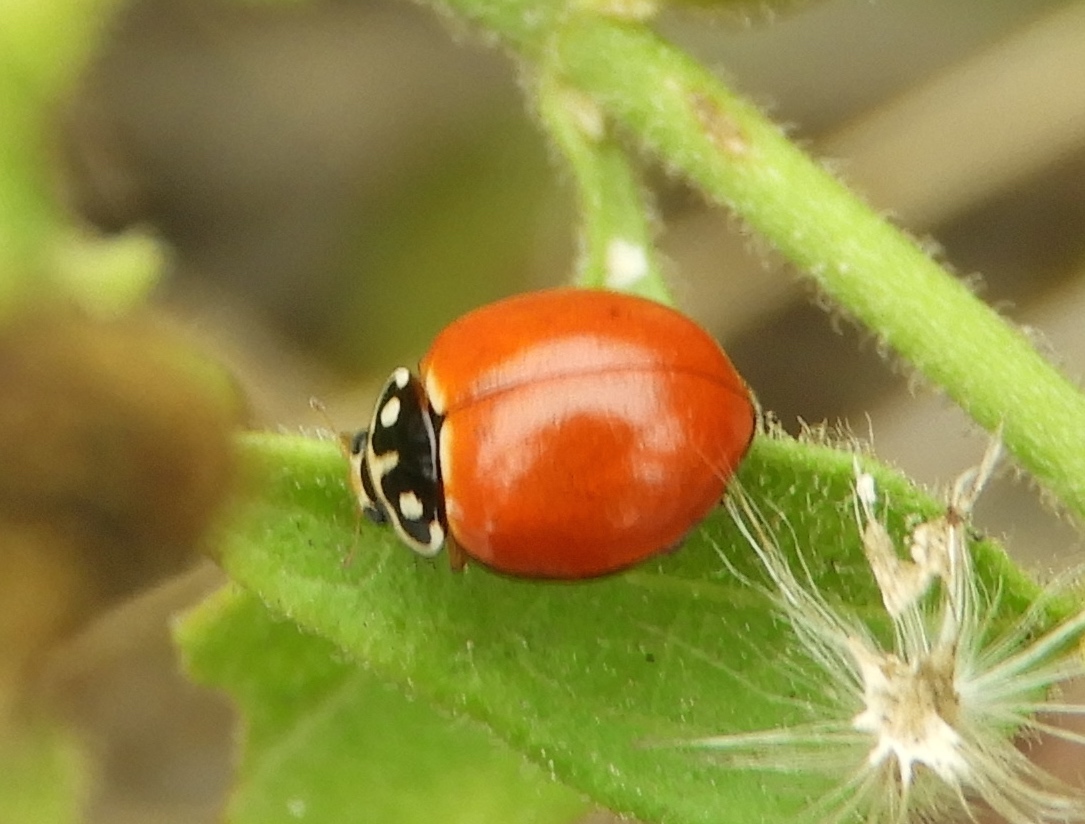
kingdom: Animalia
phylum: Arthropoda
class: Insecta
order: Coleoptera
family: Coccinellidae
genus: Cycloneda
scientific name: Cycloneda sanguinea
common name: Ladybird beetle
